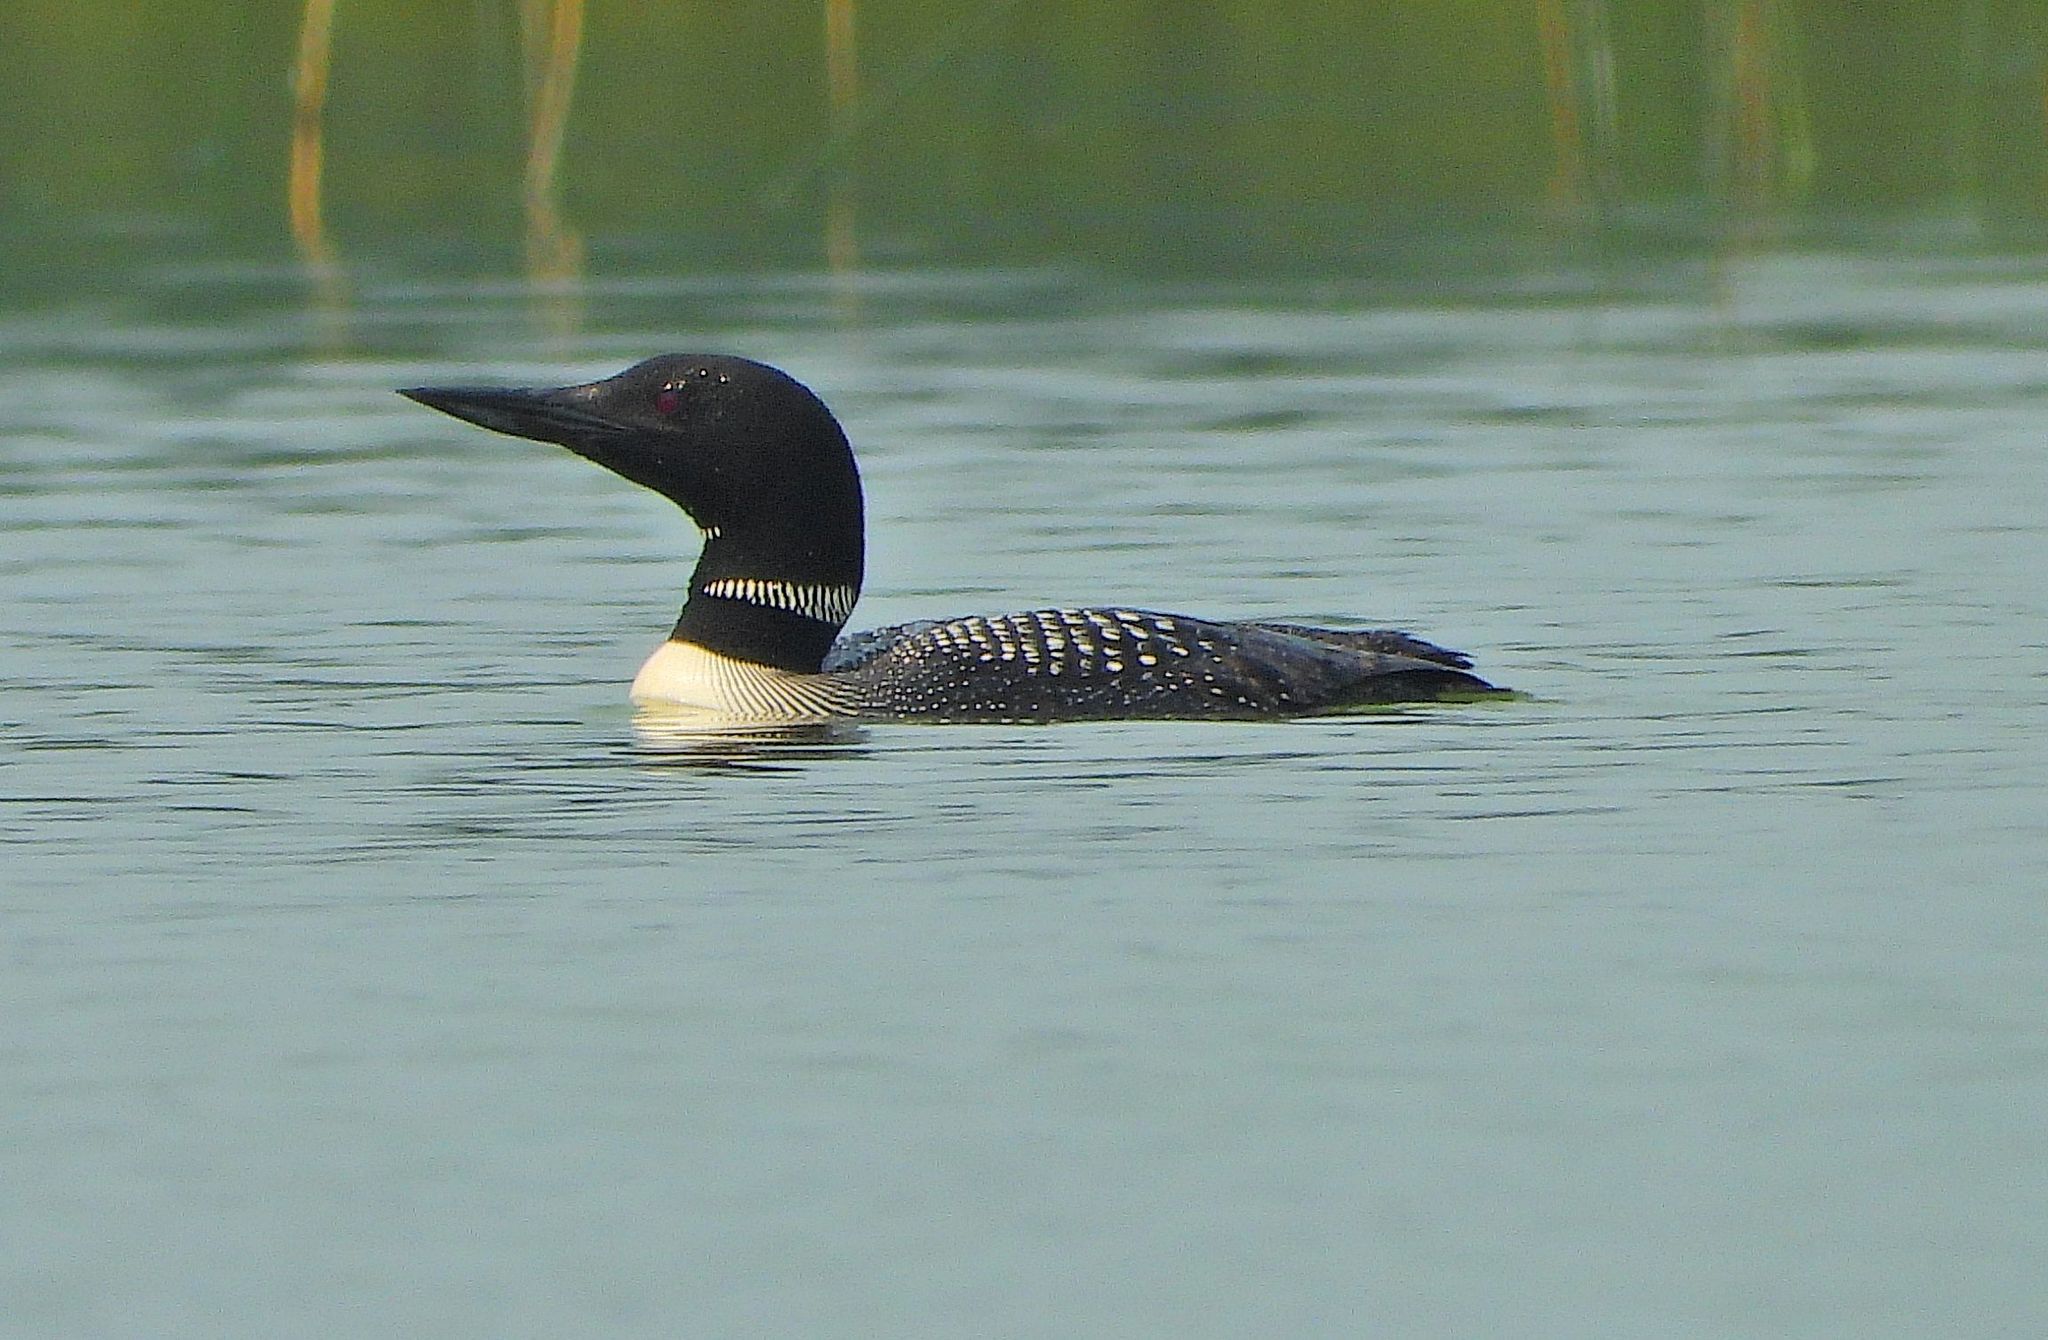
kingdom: Animalia
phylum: Chordata
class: Aves
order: Gaviiformes
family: Gaviidae
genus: Gavia
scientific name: Gavia immer
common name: Common loon
